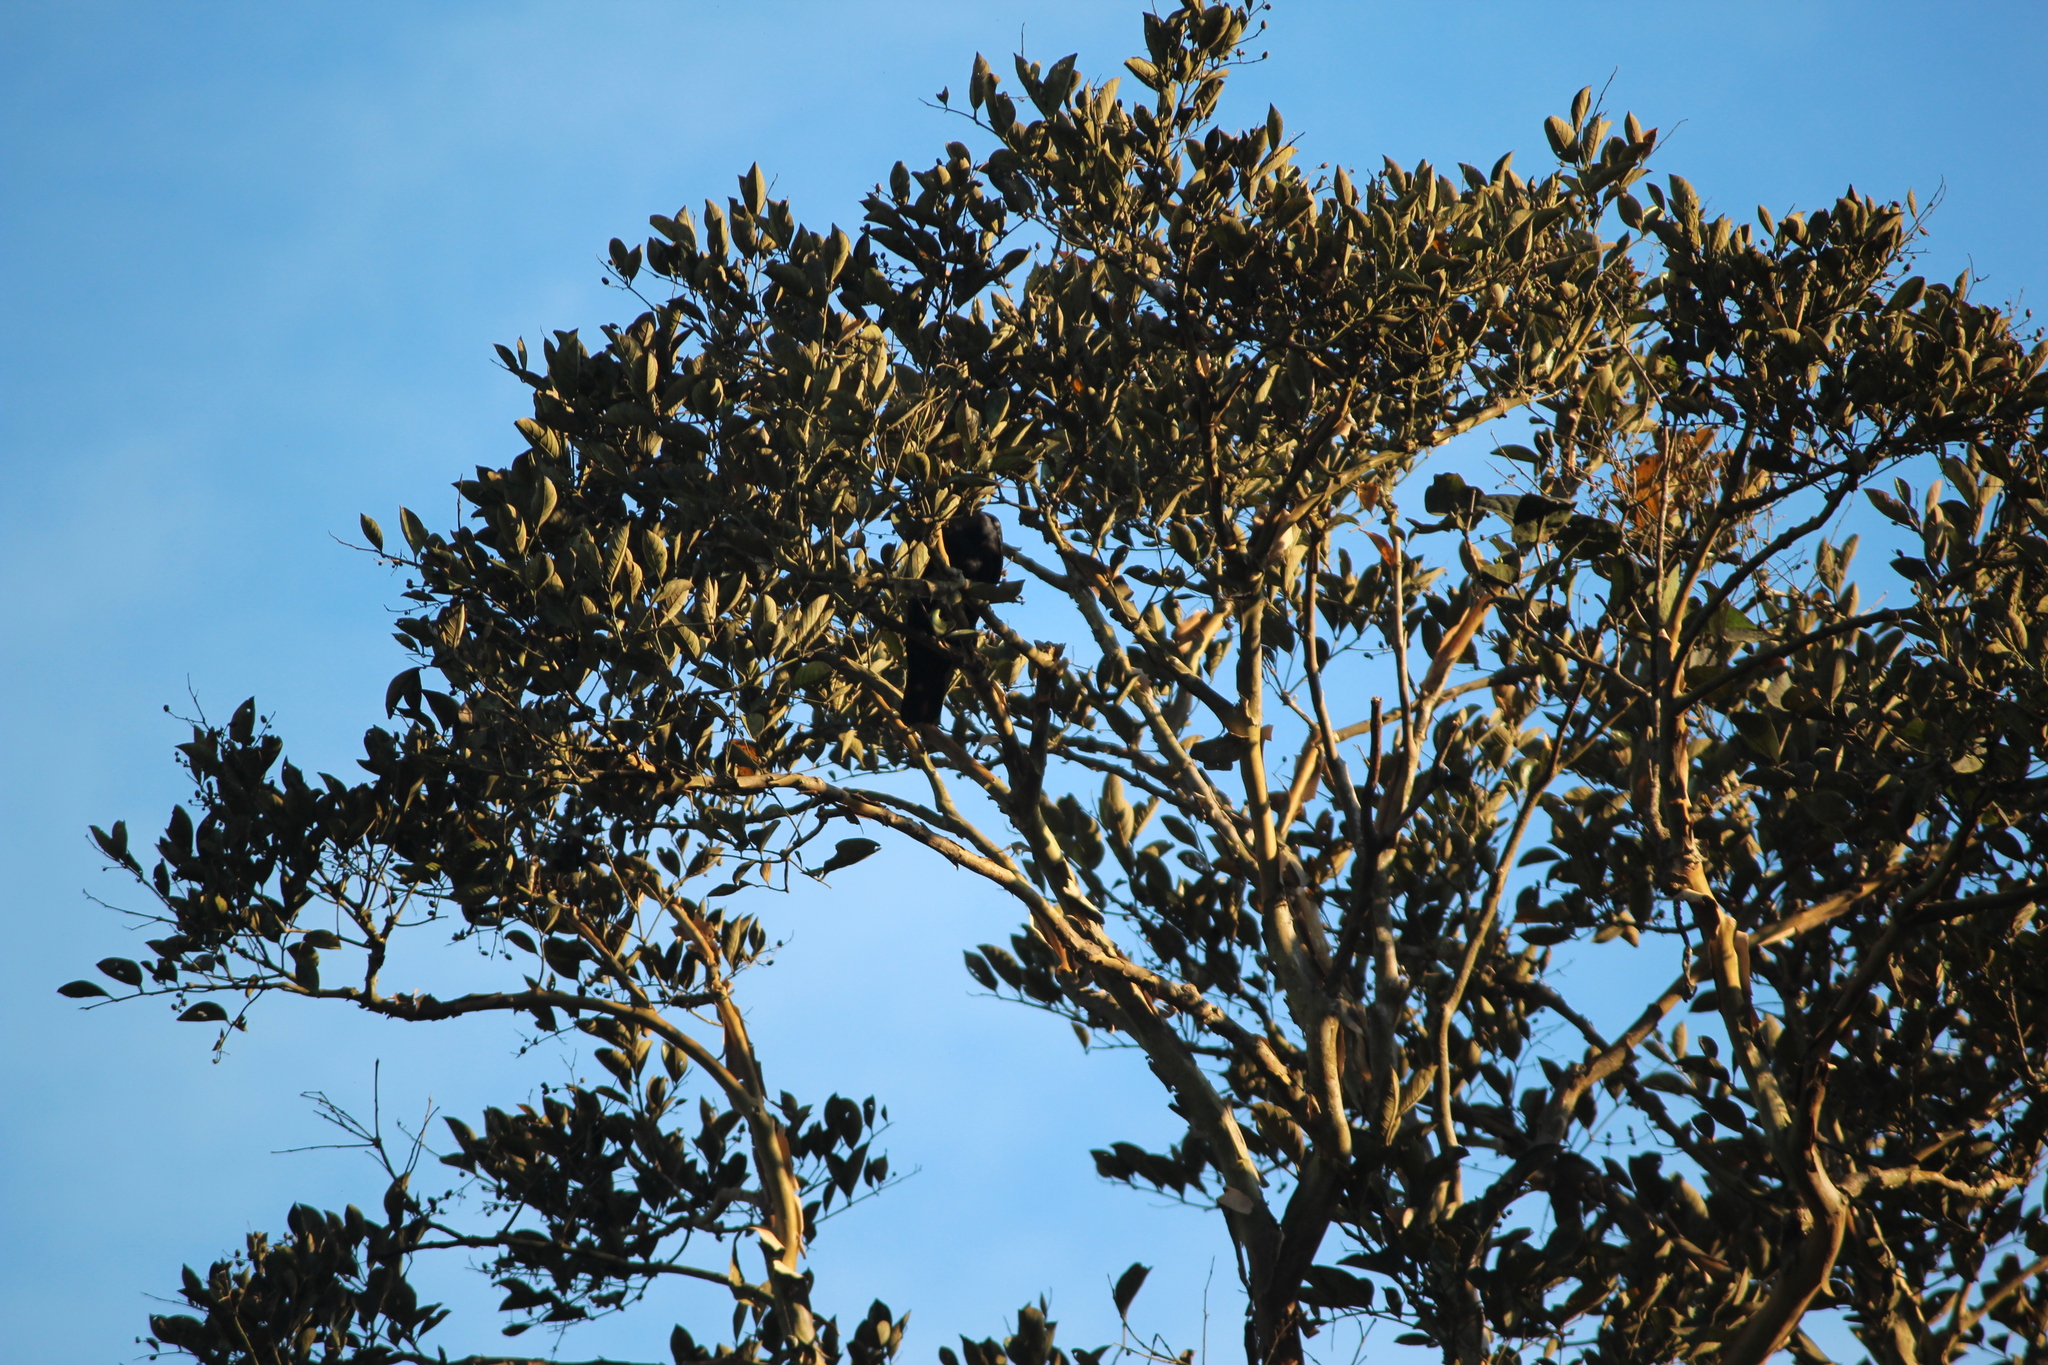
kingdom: Plantae
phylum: Tracheophyta
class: Magnoliopsida
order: Myrtales
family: Lythraceae
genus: Lagerstroemia
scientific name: Lagerstroemia microcarpa
